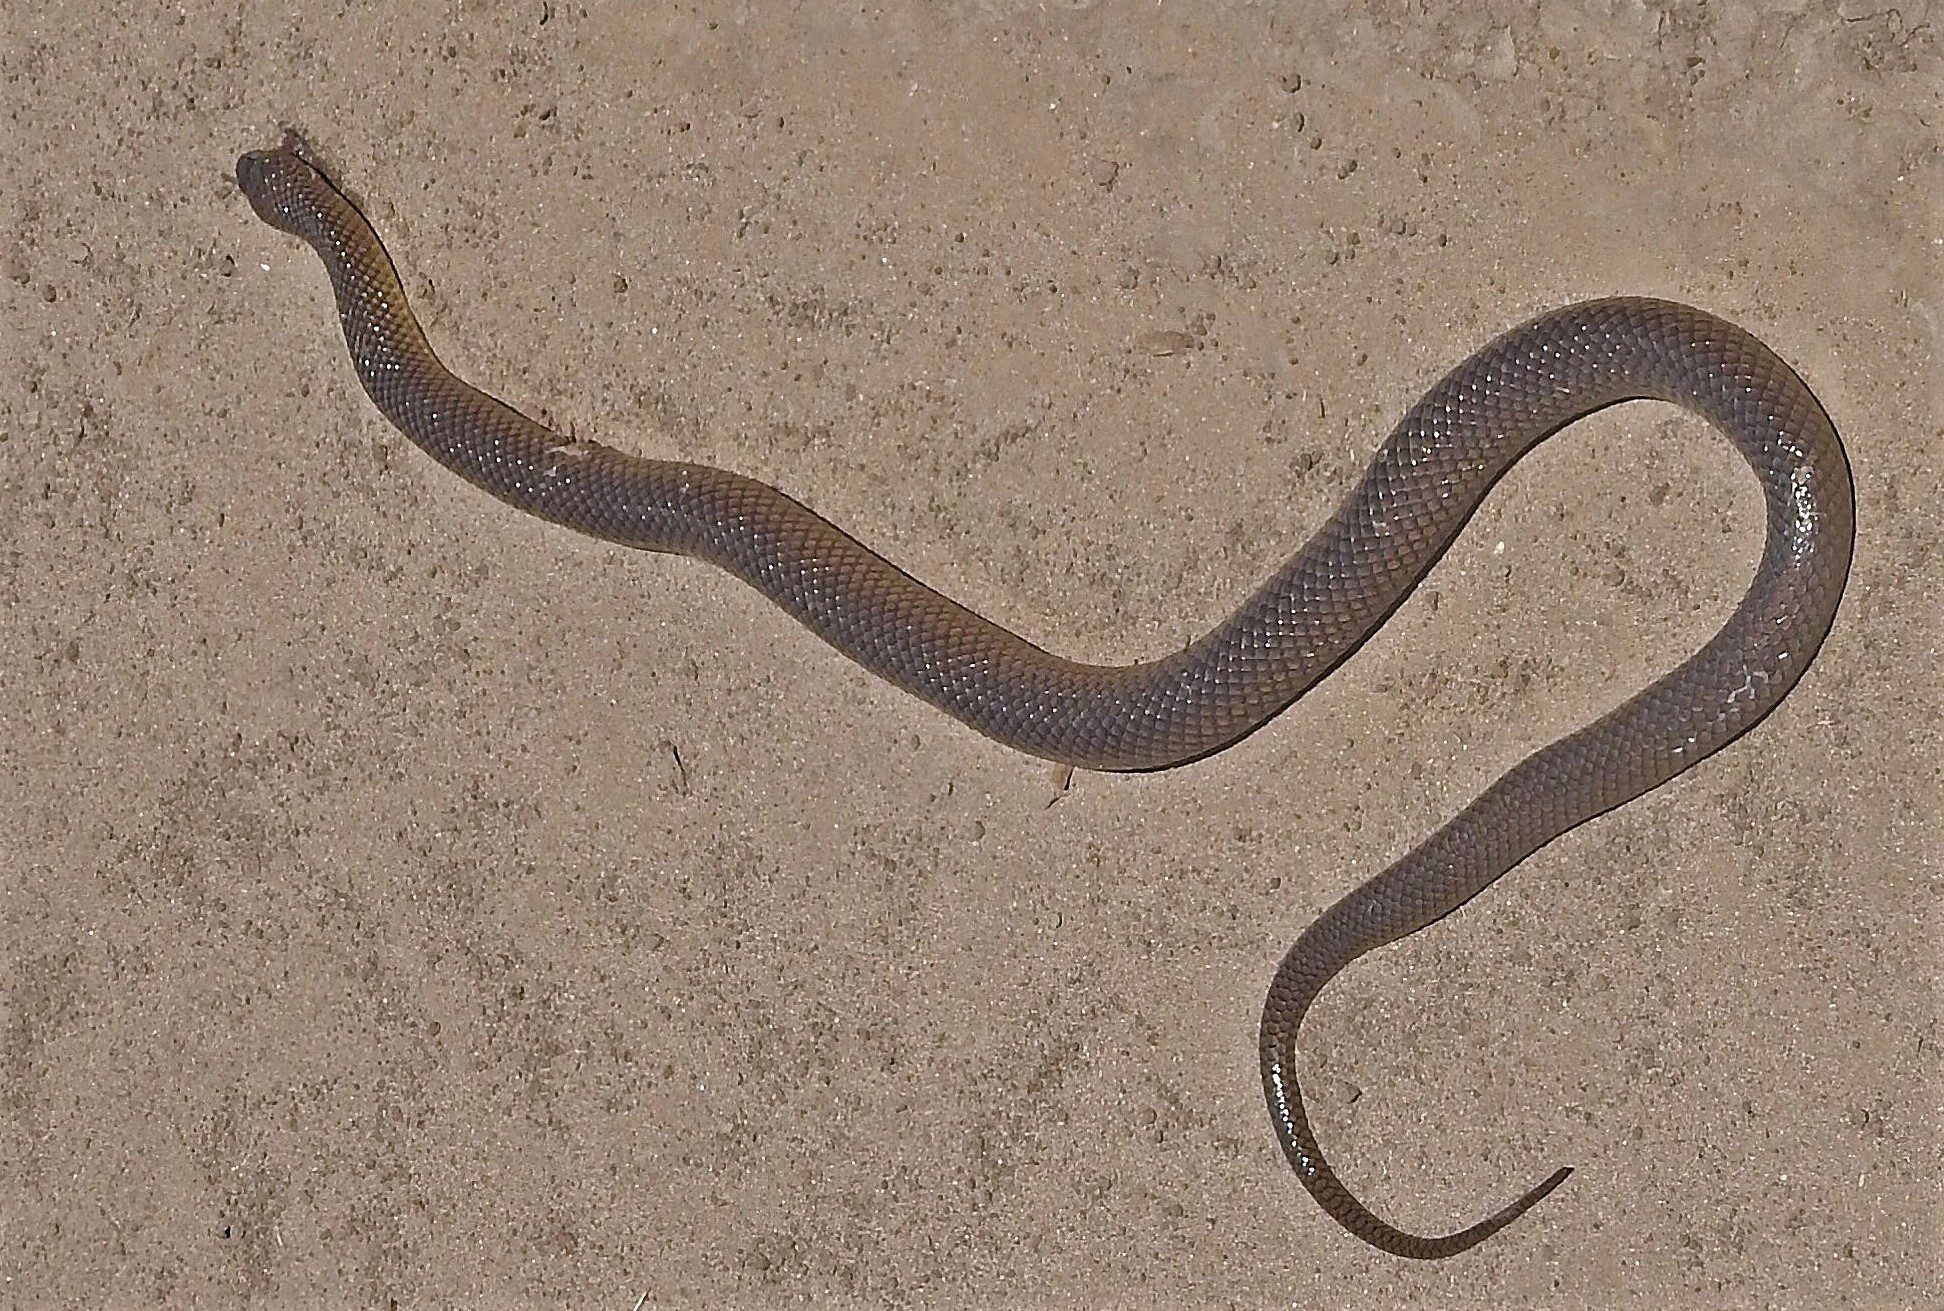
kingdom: Animalia
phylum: Chordata
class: Squamata
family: Colubridae
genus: Erythrolamprus
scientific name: Erythrolamprus semiaureus
